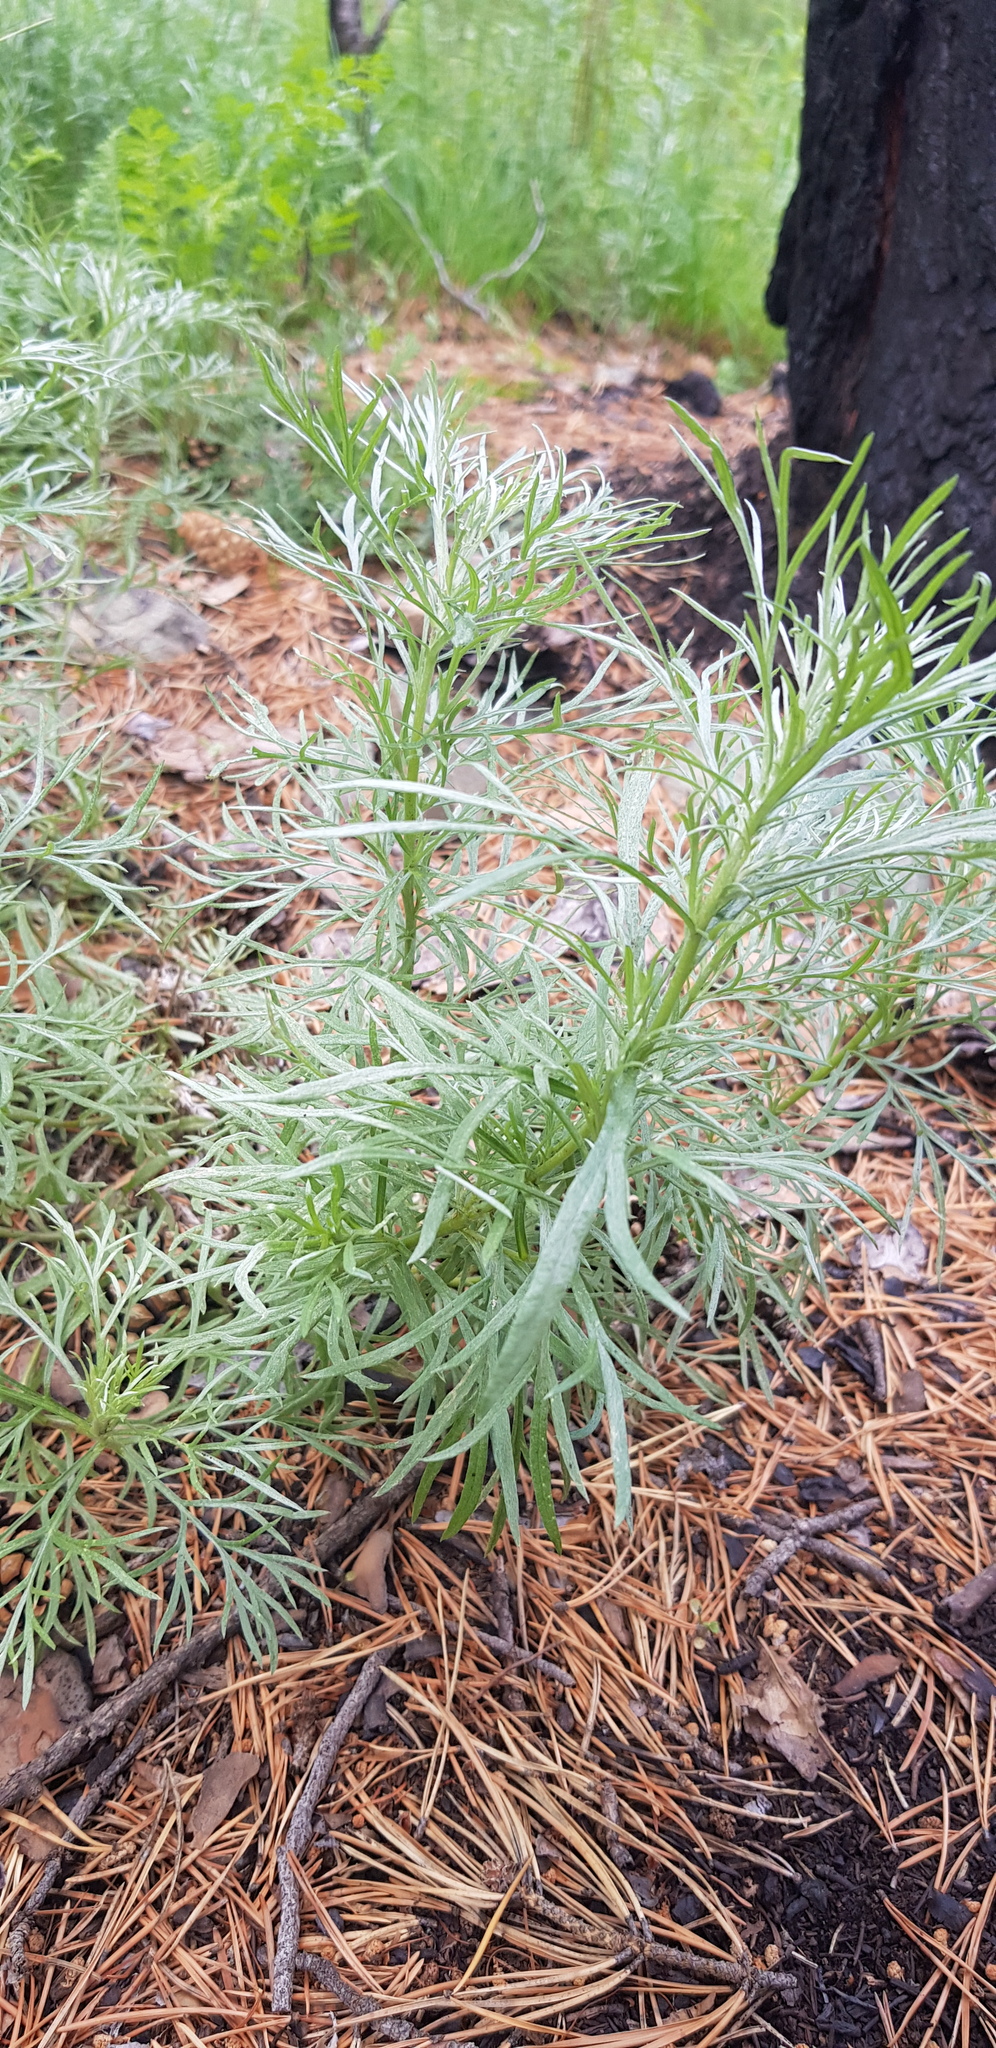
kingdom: Plantae
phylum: Tracheophyta
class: Magnoliopsida
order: Asterales
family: Asteraceae
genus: Artemisia
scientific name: Artemisia sericea
